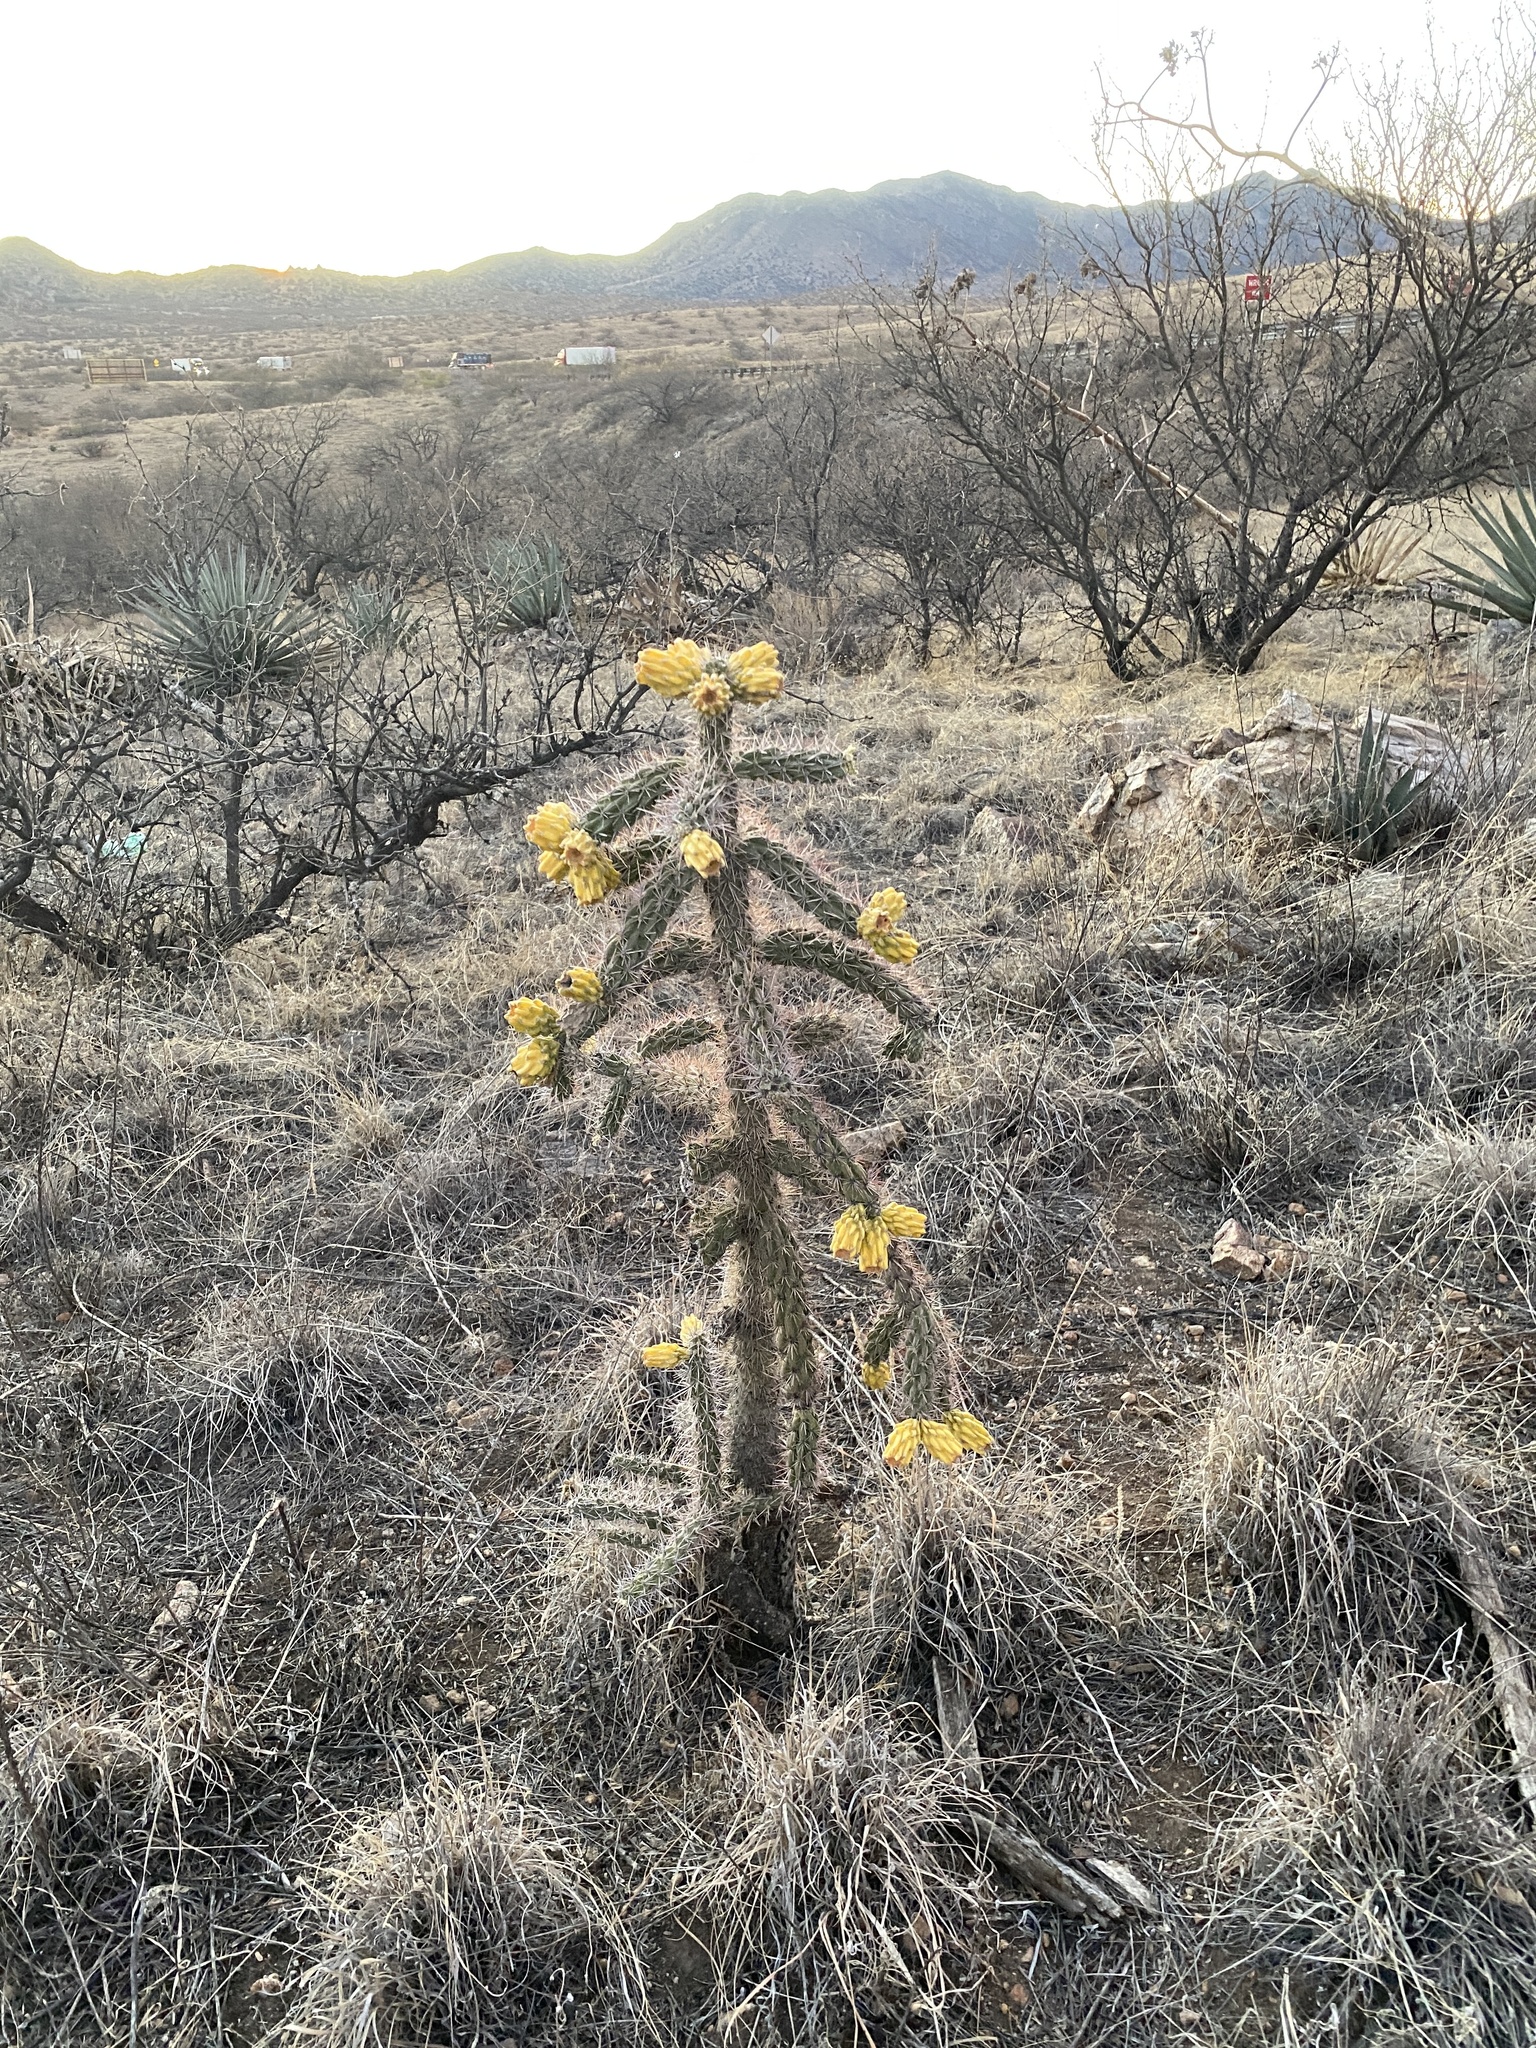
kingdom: Plantae
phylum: Tracheophyta
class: Magnoliopsida
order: Caryophyllales
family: Cactaceae
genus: Cylindropuntia
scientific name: Cylindropuntia imbricata
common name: Candelabrum cactus
